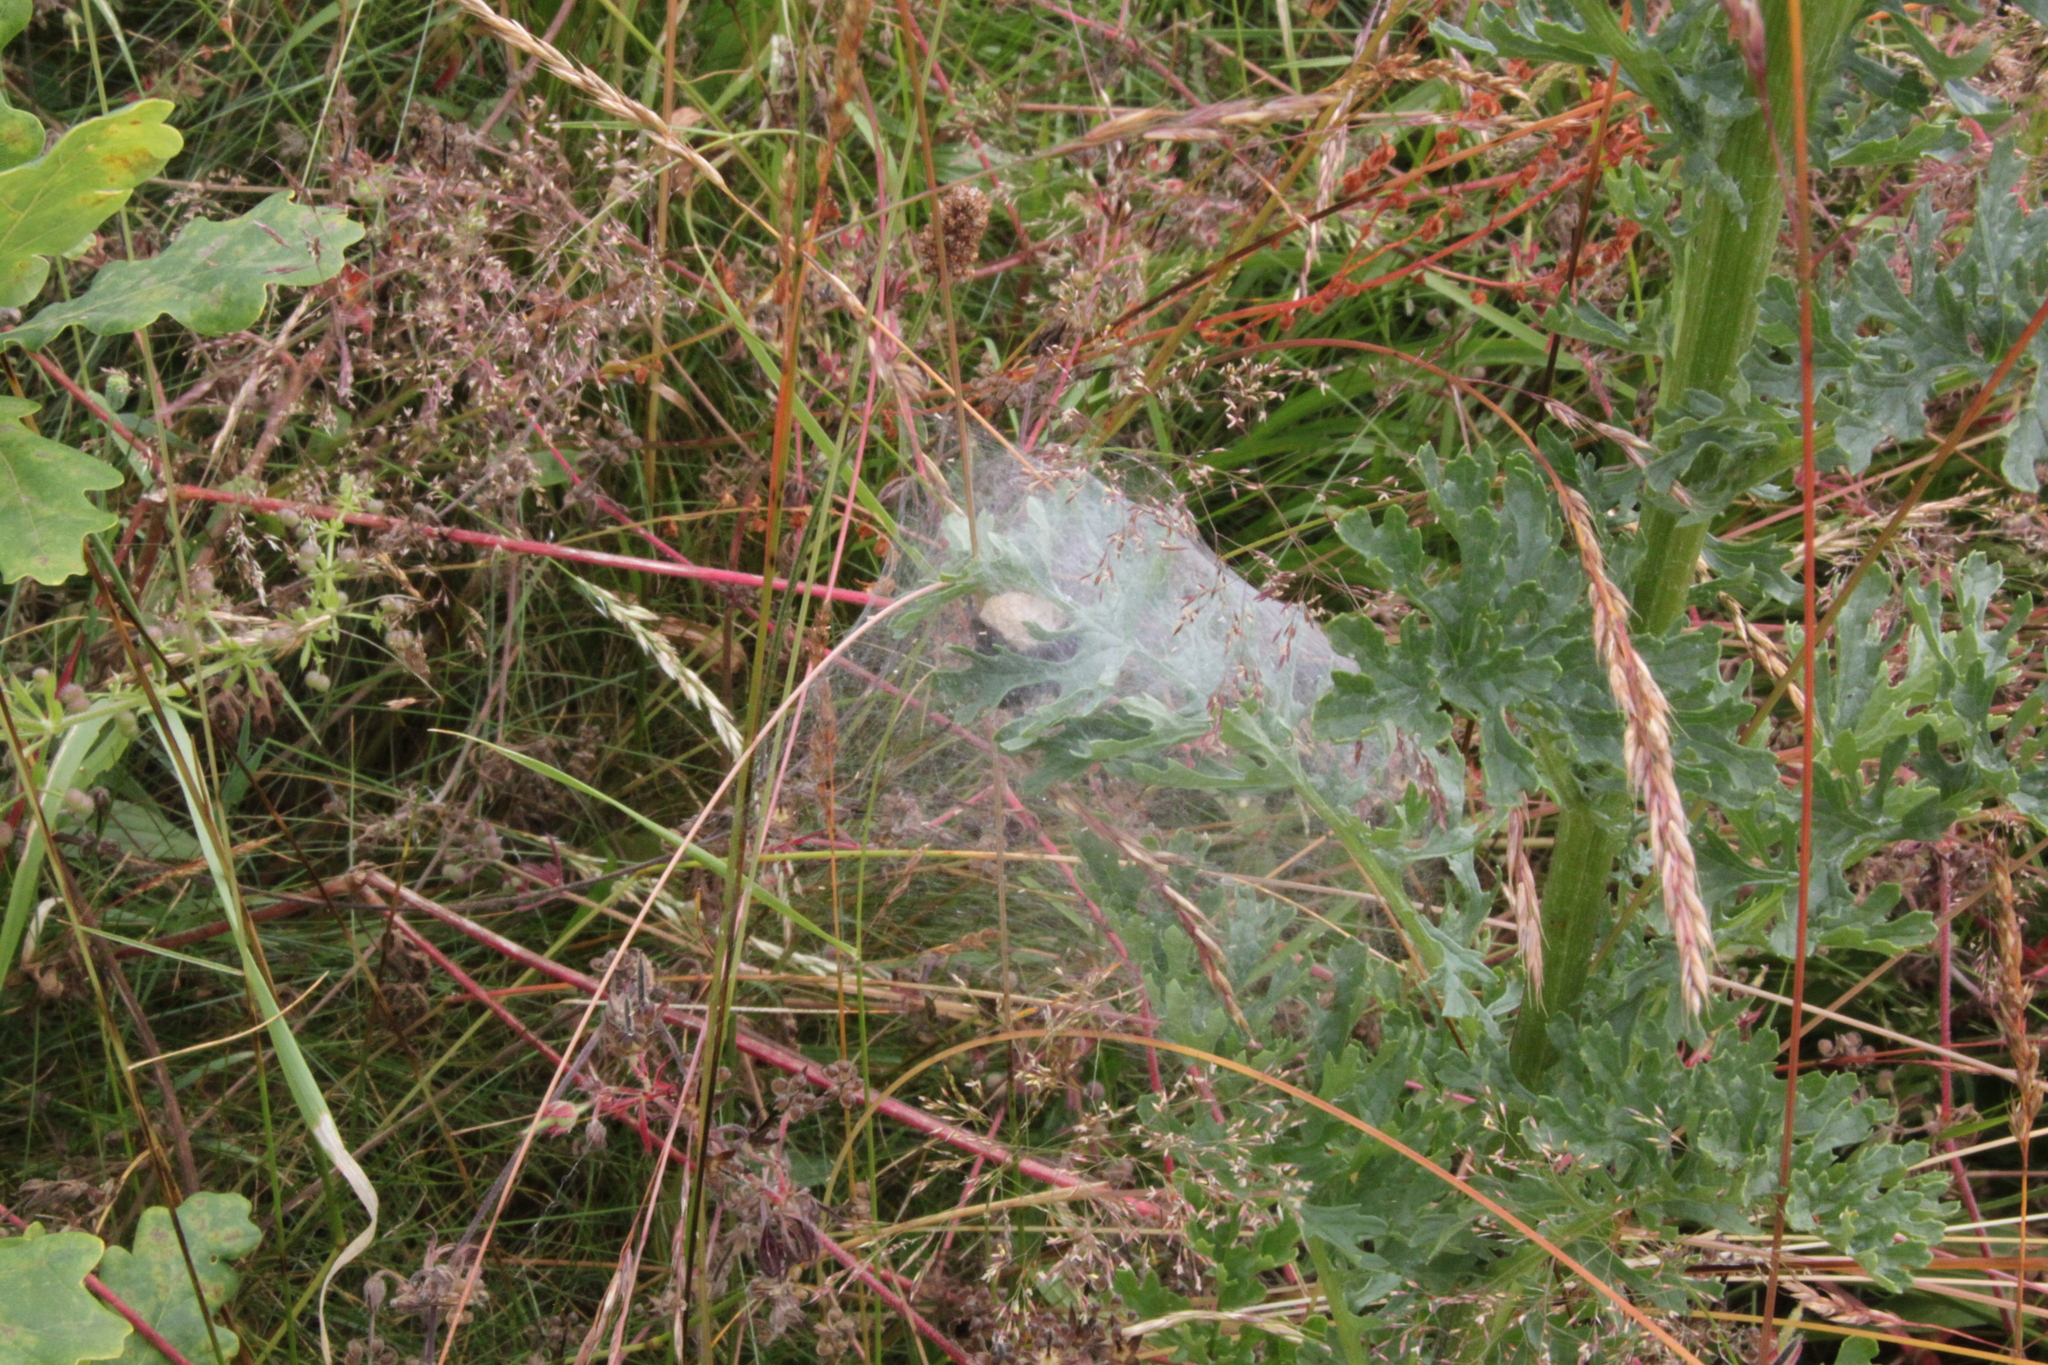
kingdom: Animalia
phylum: Arthropoda
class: Arachnida
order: Araneae
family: Pisauridae
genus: Pisaura
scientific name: Pisaura mirabilis
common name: Tent spider
